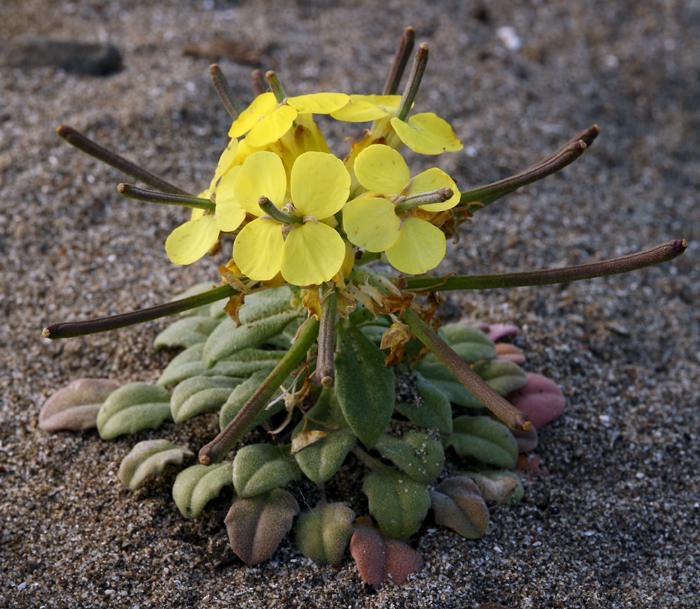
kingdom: Plantae
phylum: Tracheophyta
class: Magnoliopsida
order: Brassicales
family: Brassicaceae
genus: Erysimum
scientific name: Erysimum menziesii
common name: Menzies's wallflower
